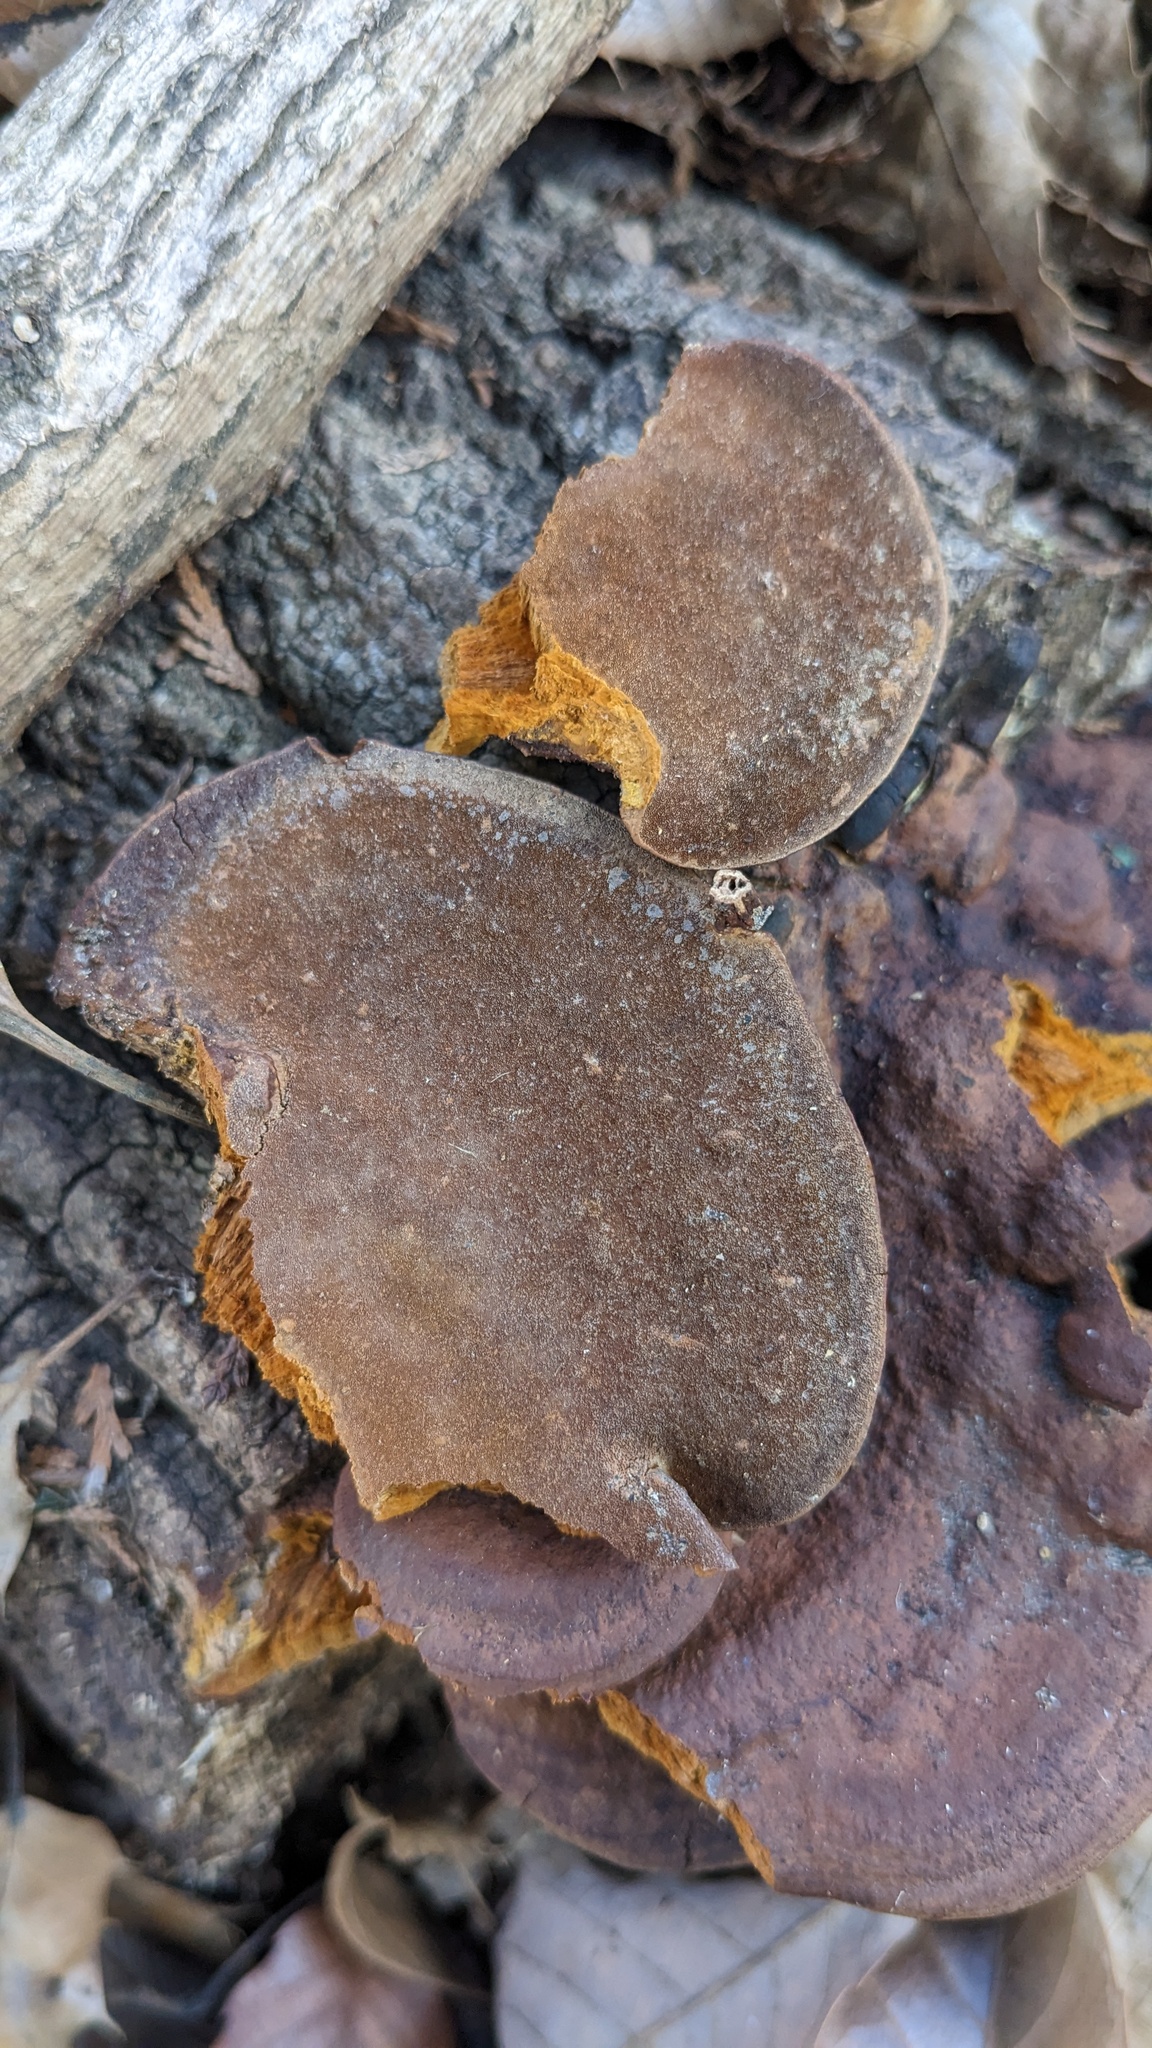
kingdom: Fungi
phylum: Basidiomycota
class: Agaricomycetes
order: Hymenochaetales
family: Hymenochaetaceae
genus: Phellinus
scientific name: Phellinus gilvus
